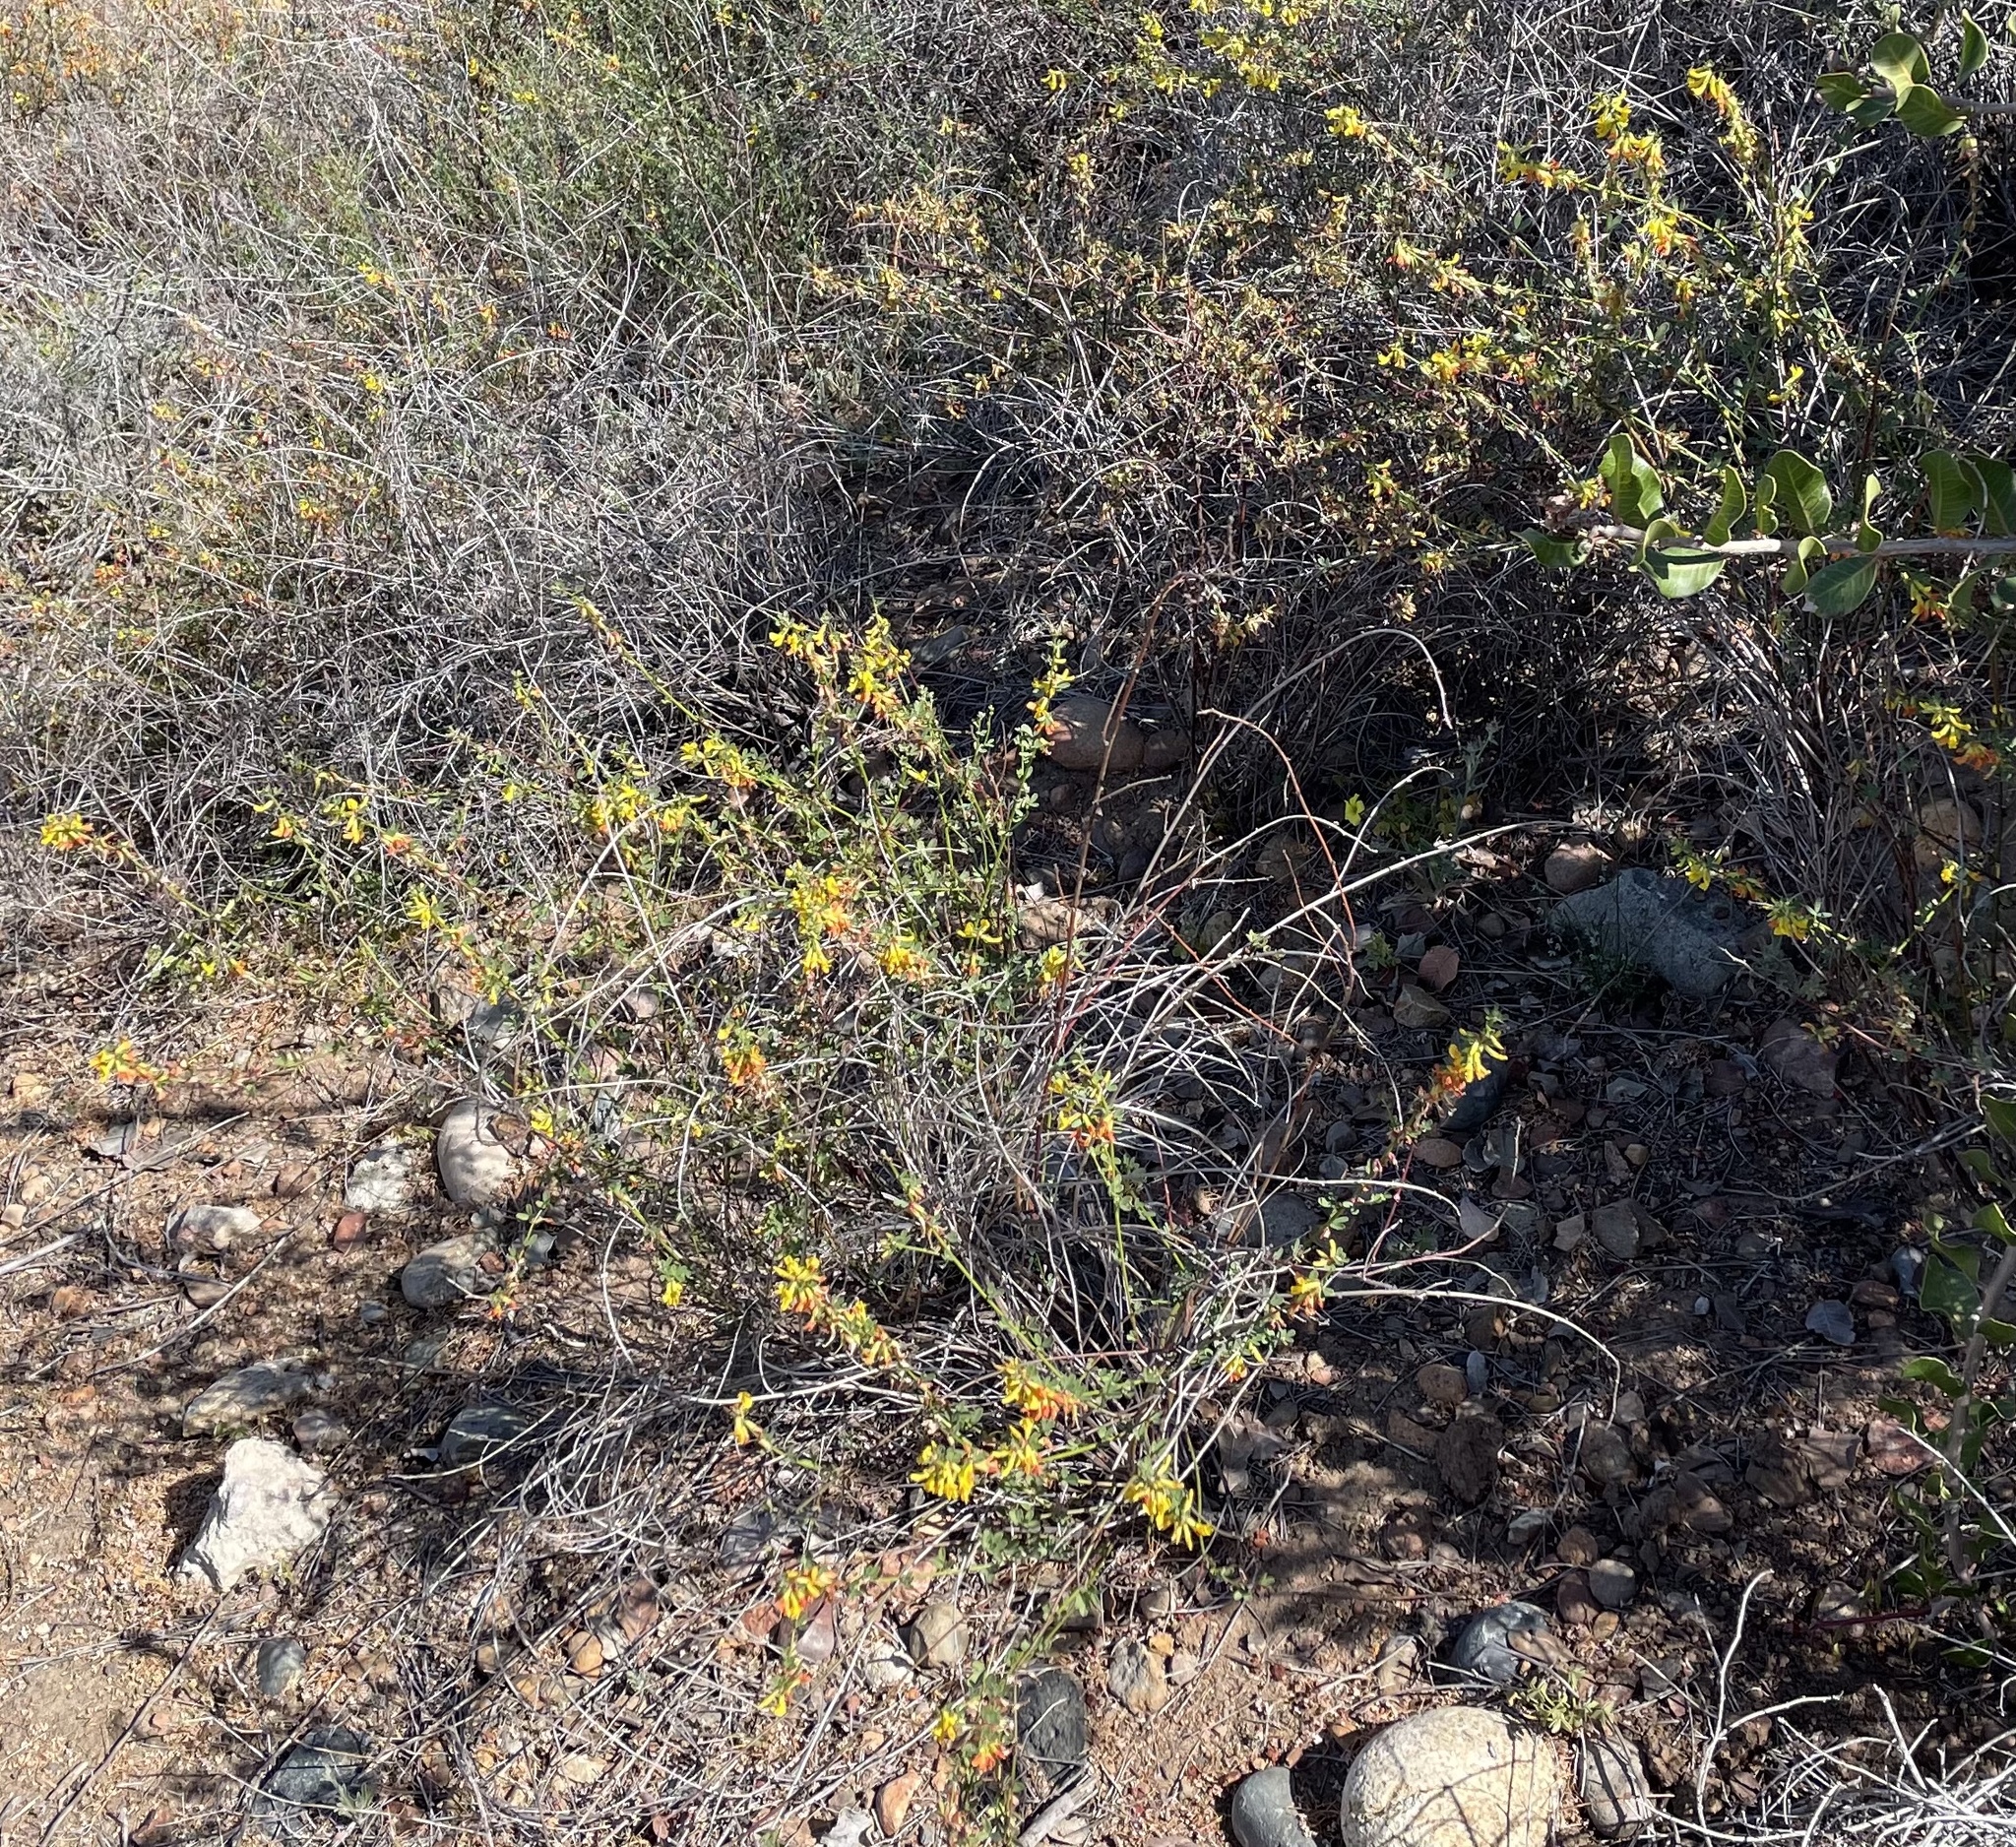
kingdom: Plantae
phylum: Tracheophyta
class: Magnoliopsida
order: Fabales
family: Fabaceae
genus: Acmispon
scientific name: Acmispon glaber
